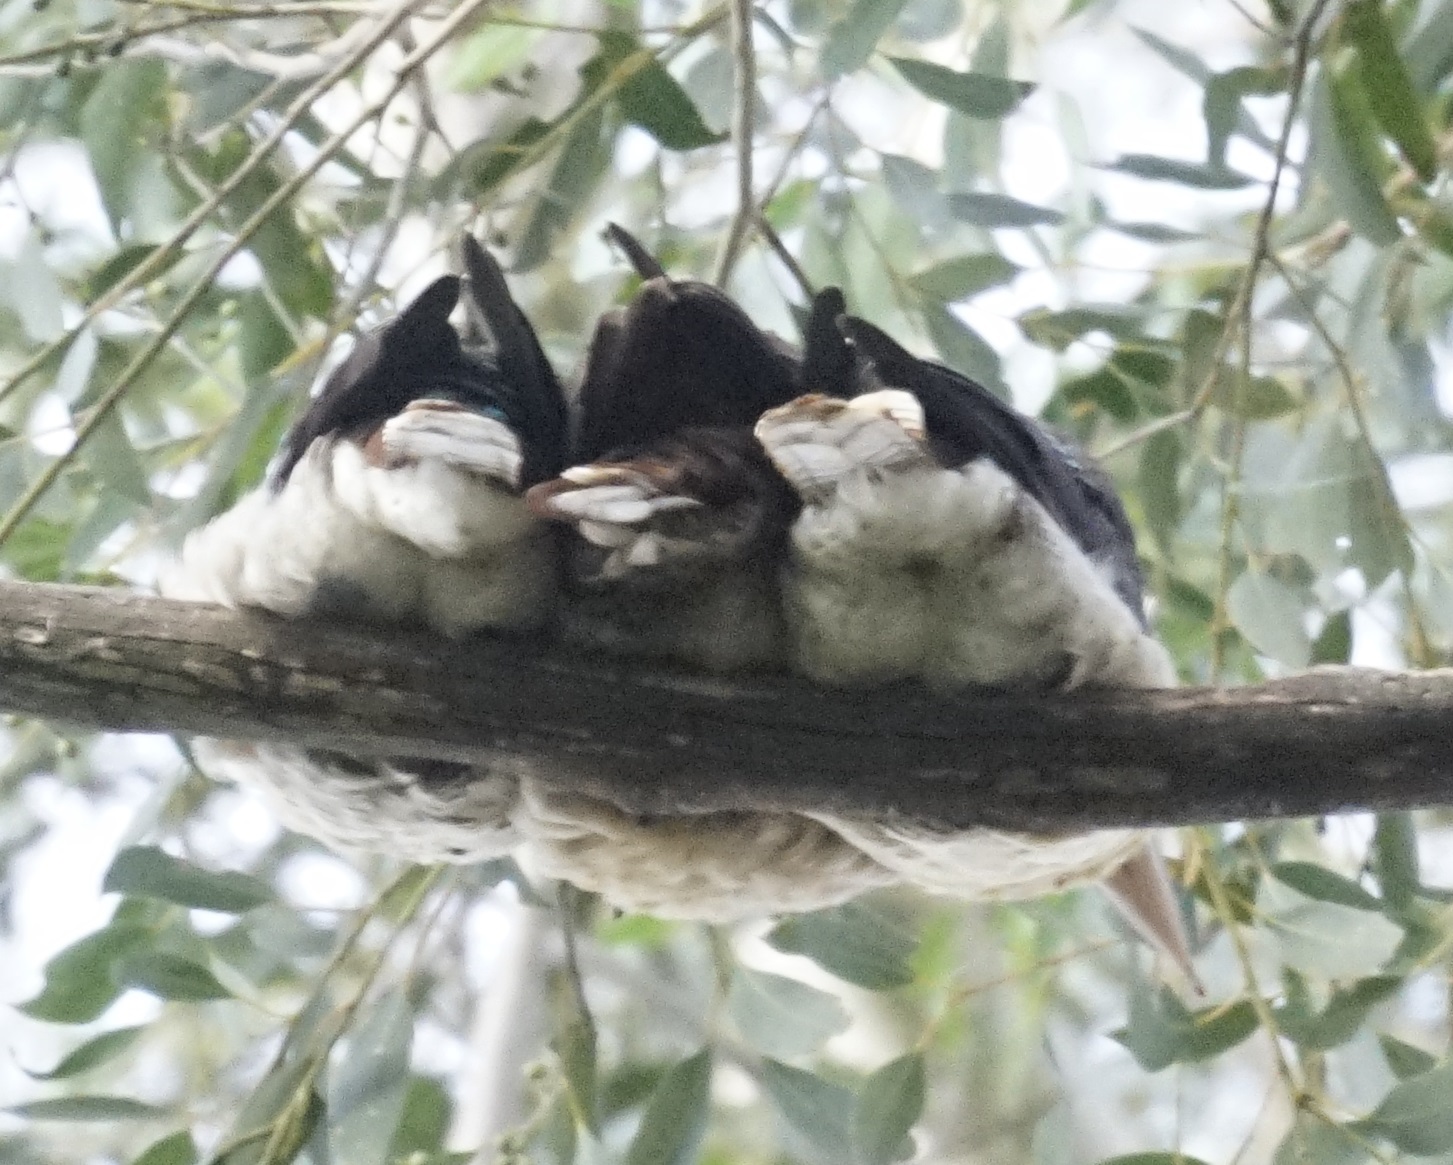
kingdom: Animalia
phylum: Chordata
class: Aves
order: Coraciiformes
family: Alcedinidae
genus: Dacelo
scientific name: Dacelo novaeguineae
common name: Laughing kookaburra
